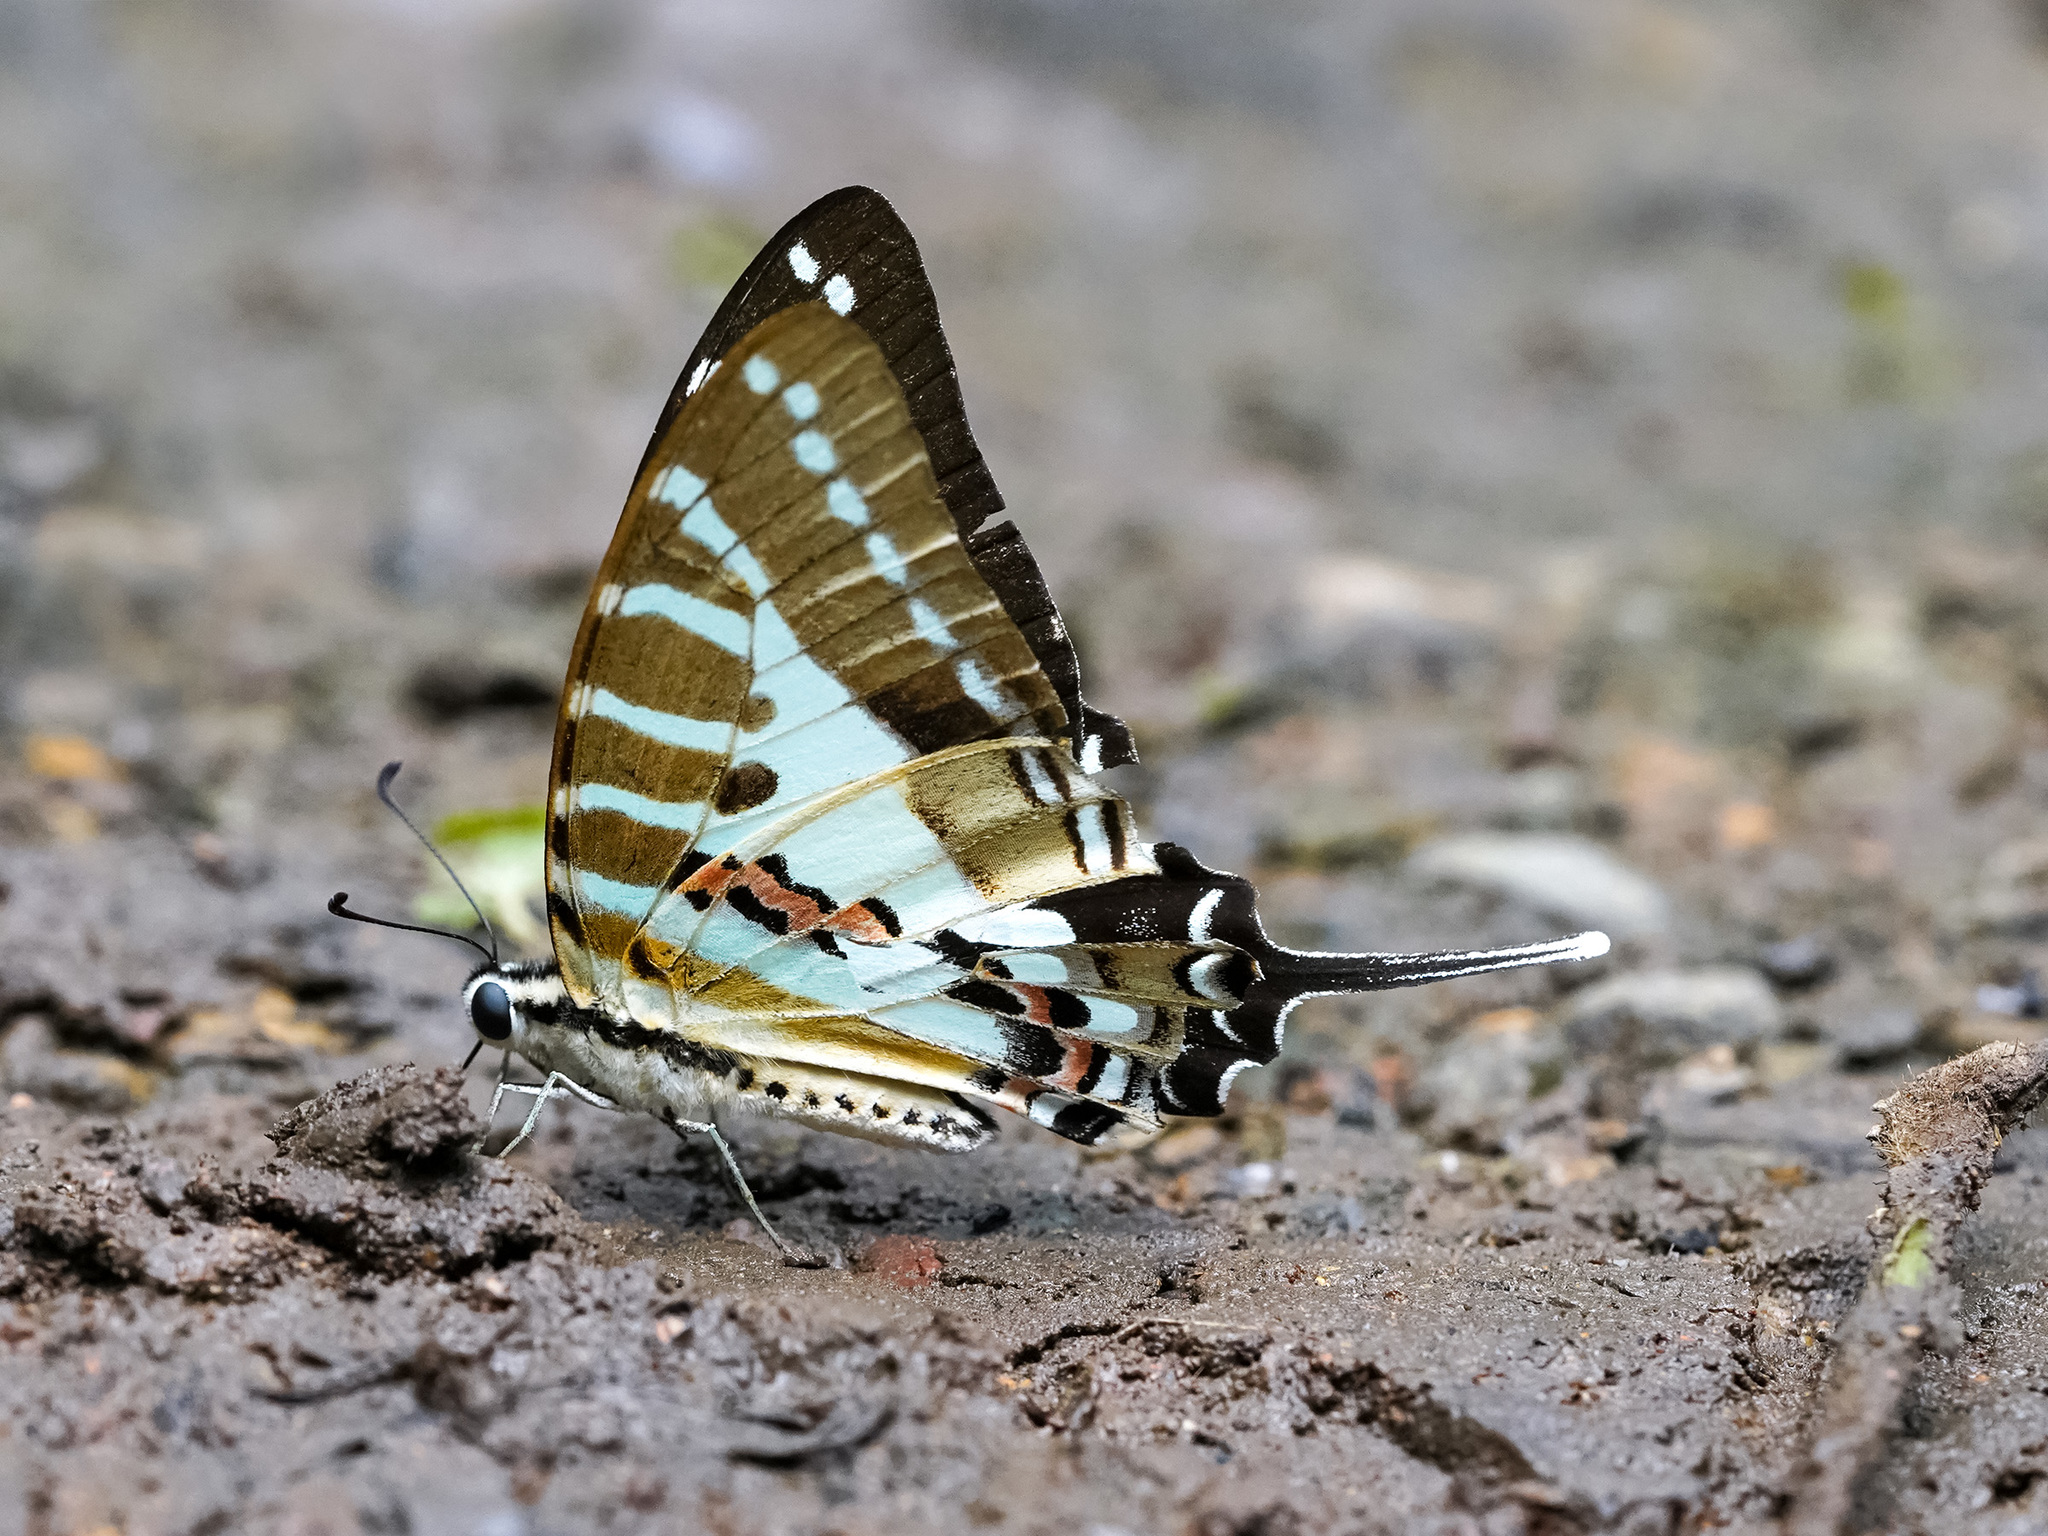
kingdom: Animalia
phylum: Arthropoda
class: Insecta
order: Lepidoptera
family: Papilionidae
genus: Graphium
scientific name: Graphium nomius
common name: Spot swordtail
